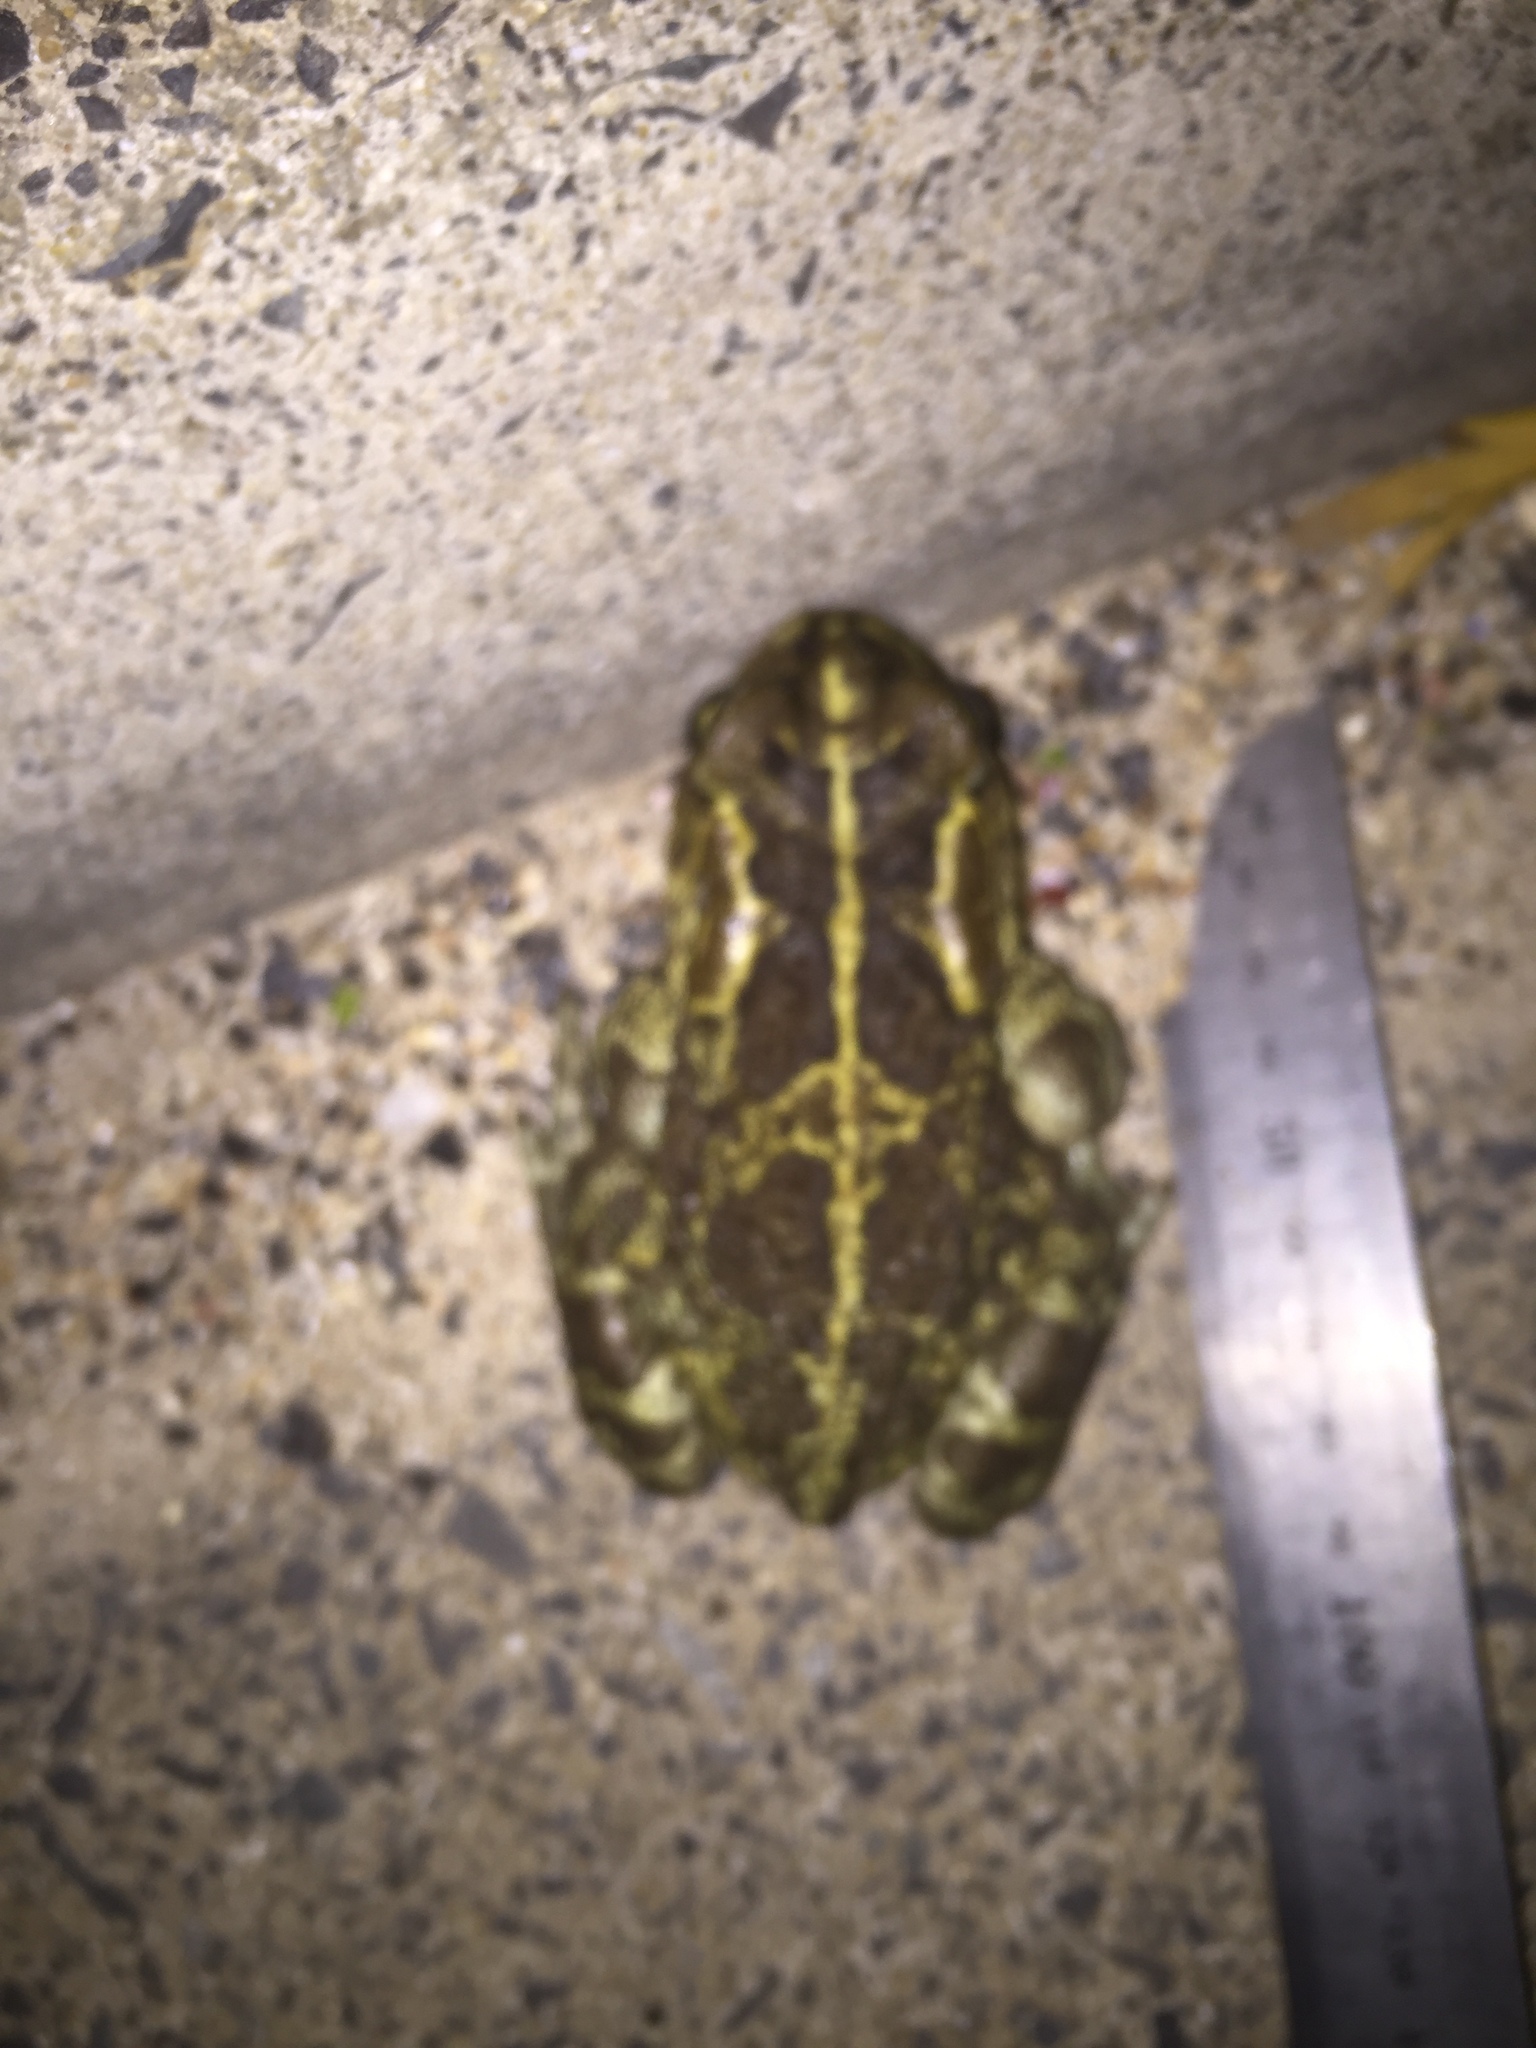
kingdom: Animalia
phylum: Chordata
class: Amphibia
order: Anura
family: Bufonidae
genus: Sclerophrys
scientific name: Sclerophrys pantherina
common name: Panther toad
